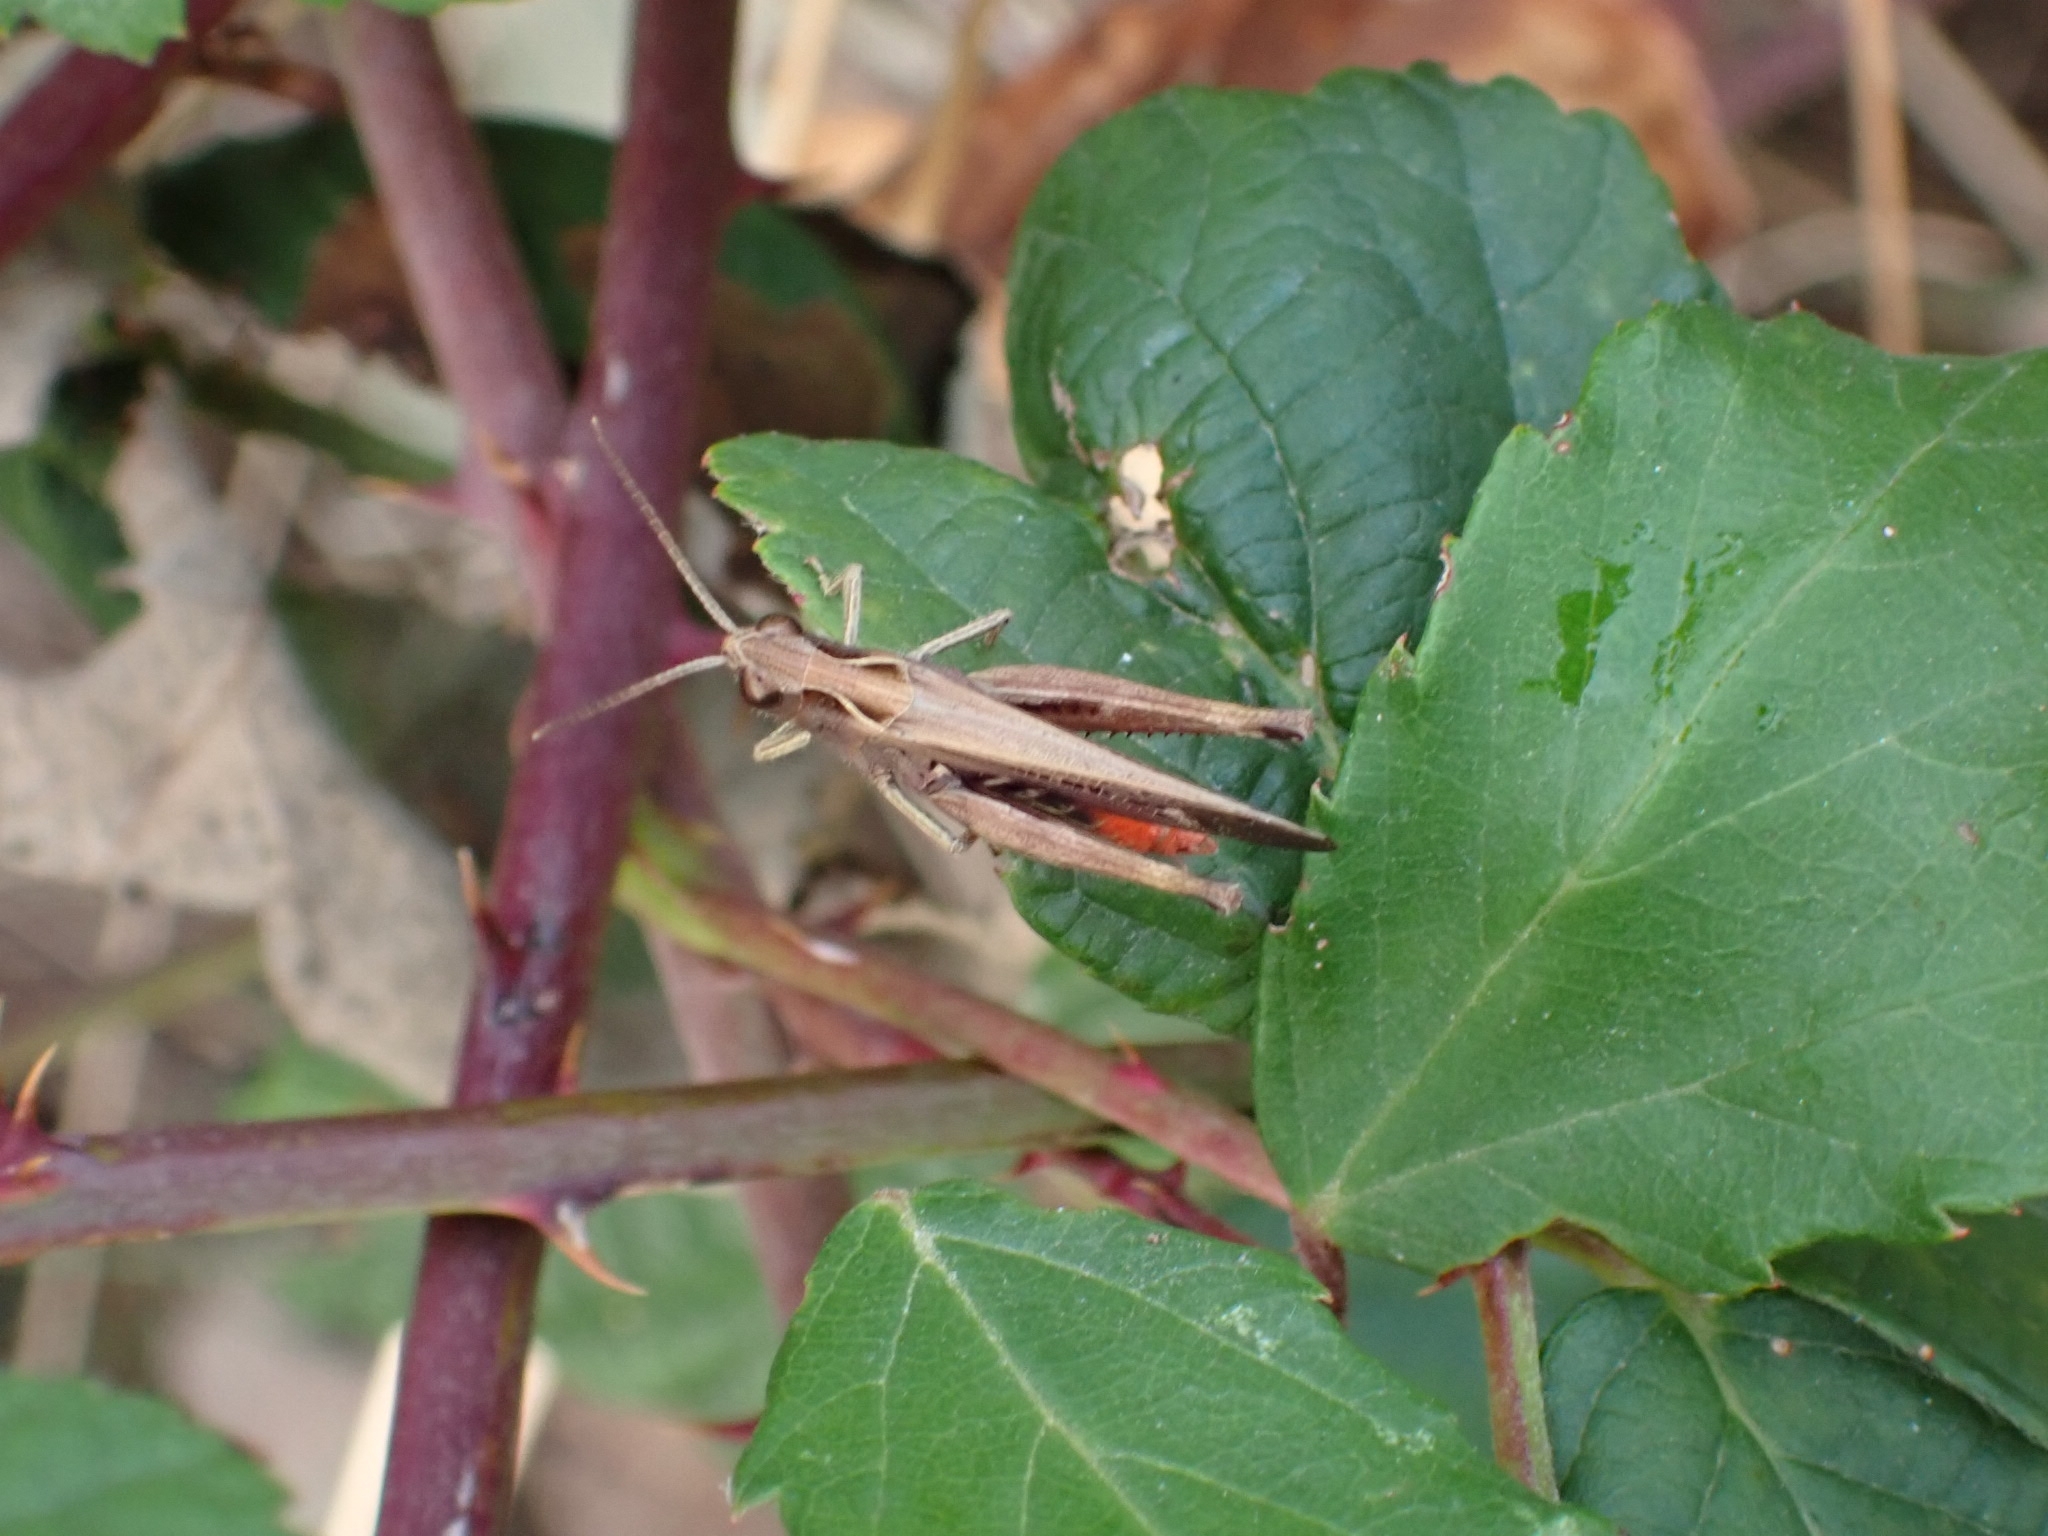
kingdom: Animalia
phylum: Arthropoda
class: Insecta
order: Orthoptera
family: Acrididae
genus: Omocestus
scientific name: Omocestus rufipes
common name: Woodland grasshopper
